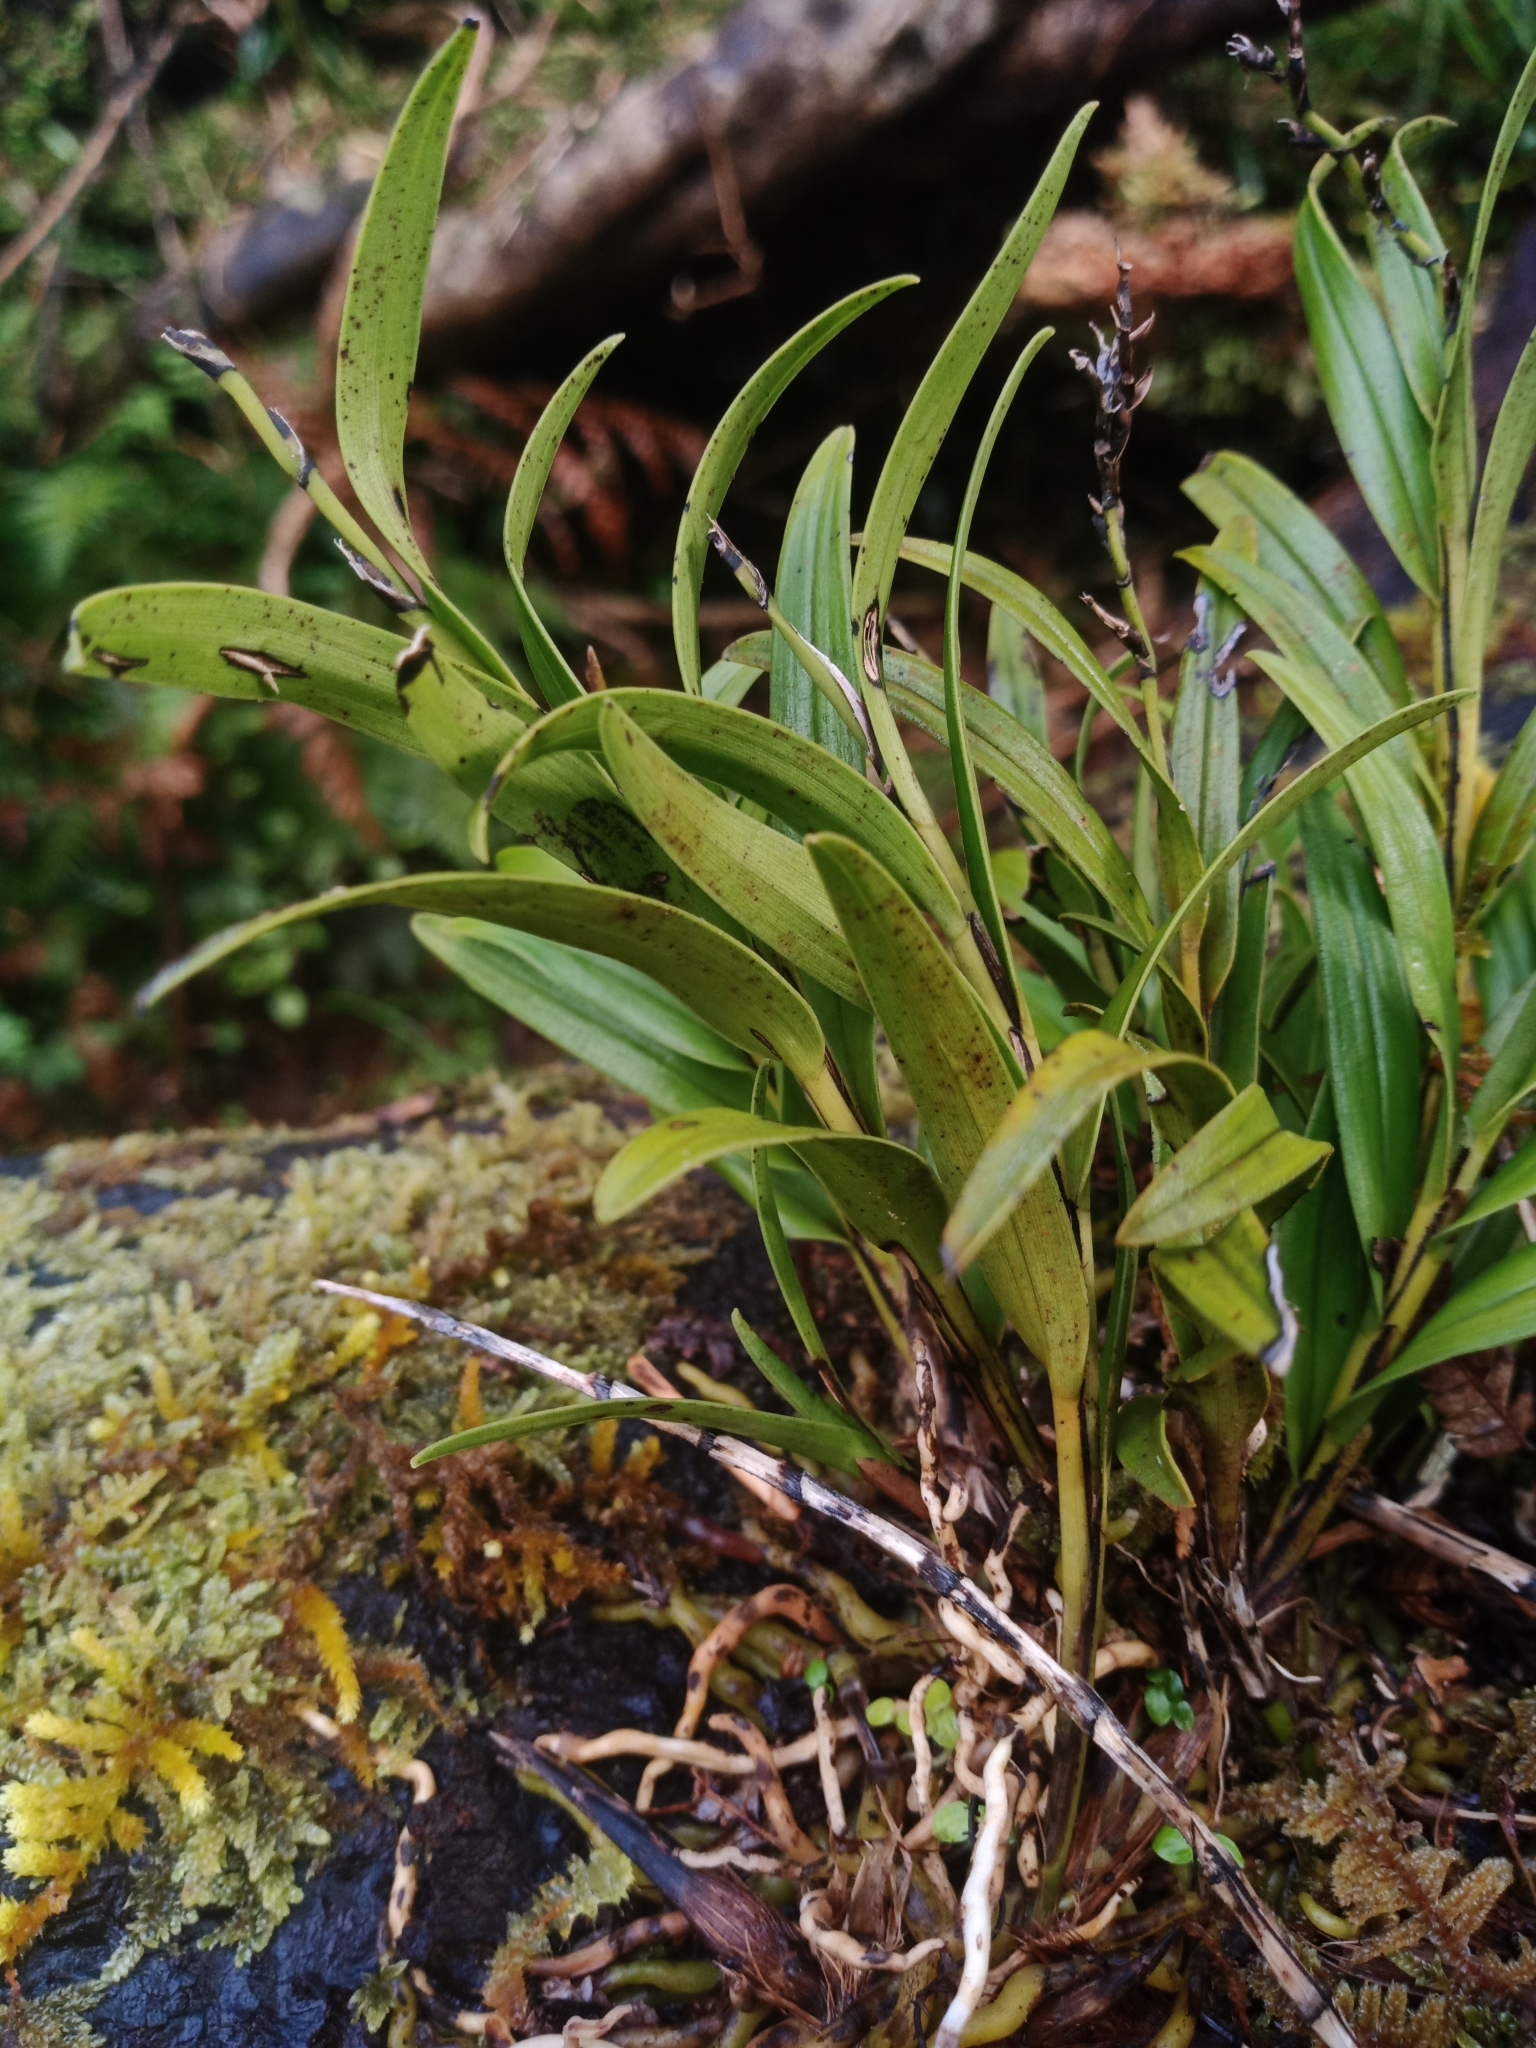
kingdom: Plantae
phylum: Tracheophyta
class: Liliopsida
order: Asparagales
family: Orchidaceae
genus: Earina
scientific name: Earina autumnalis
